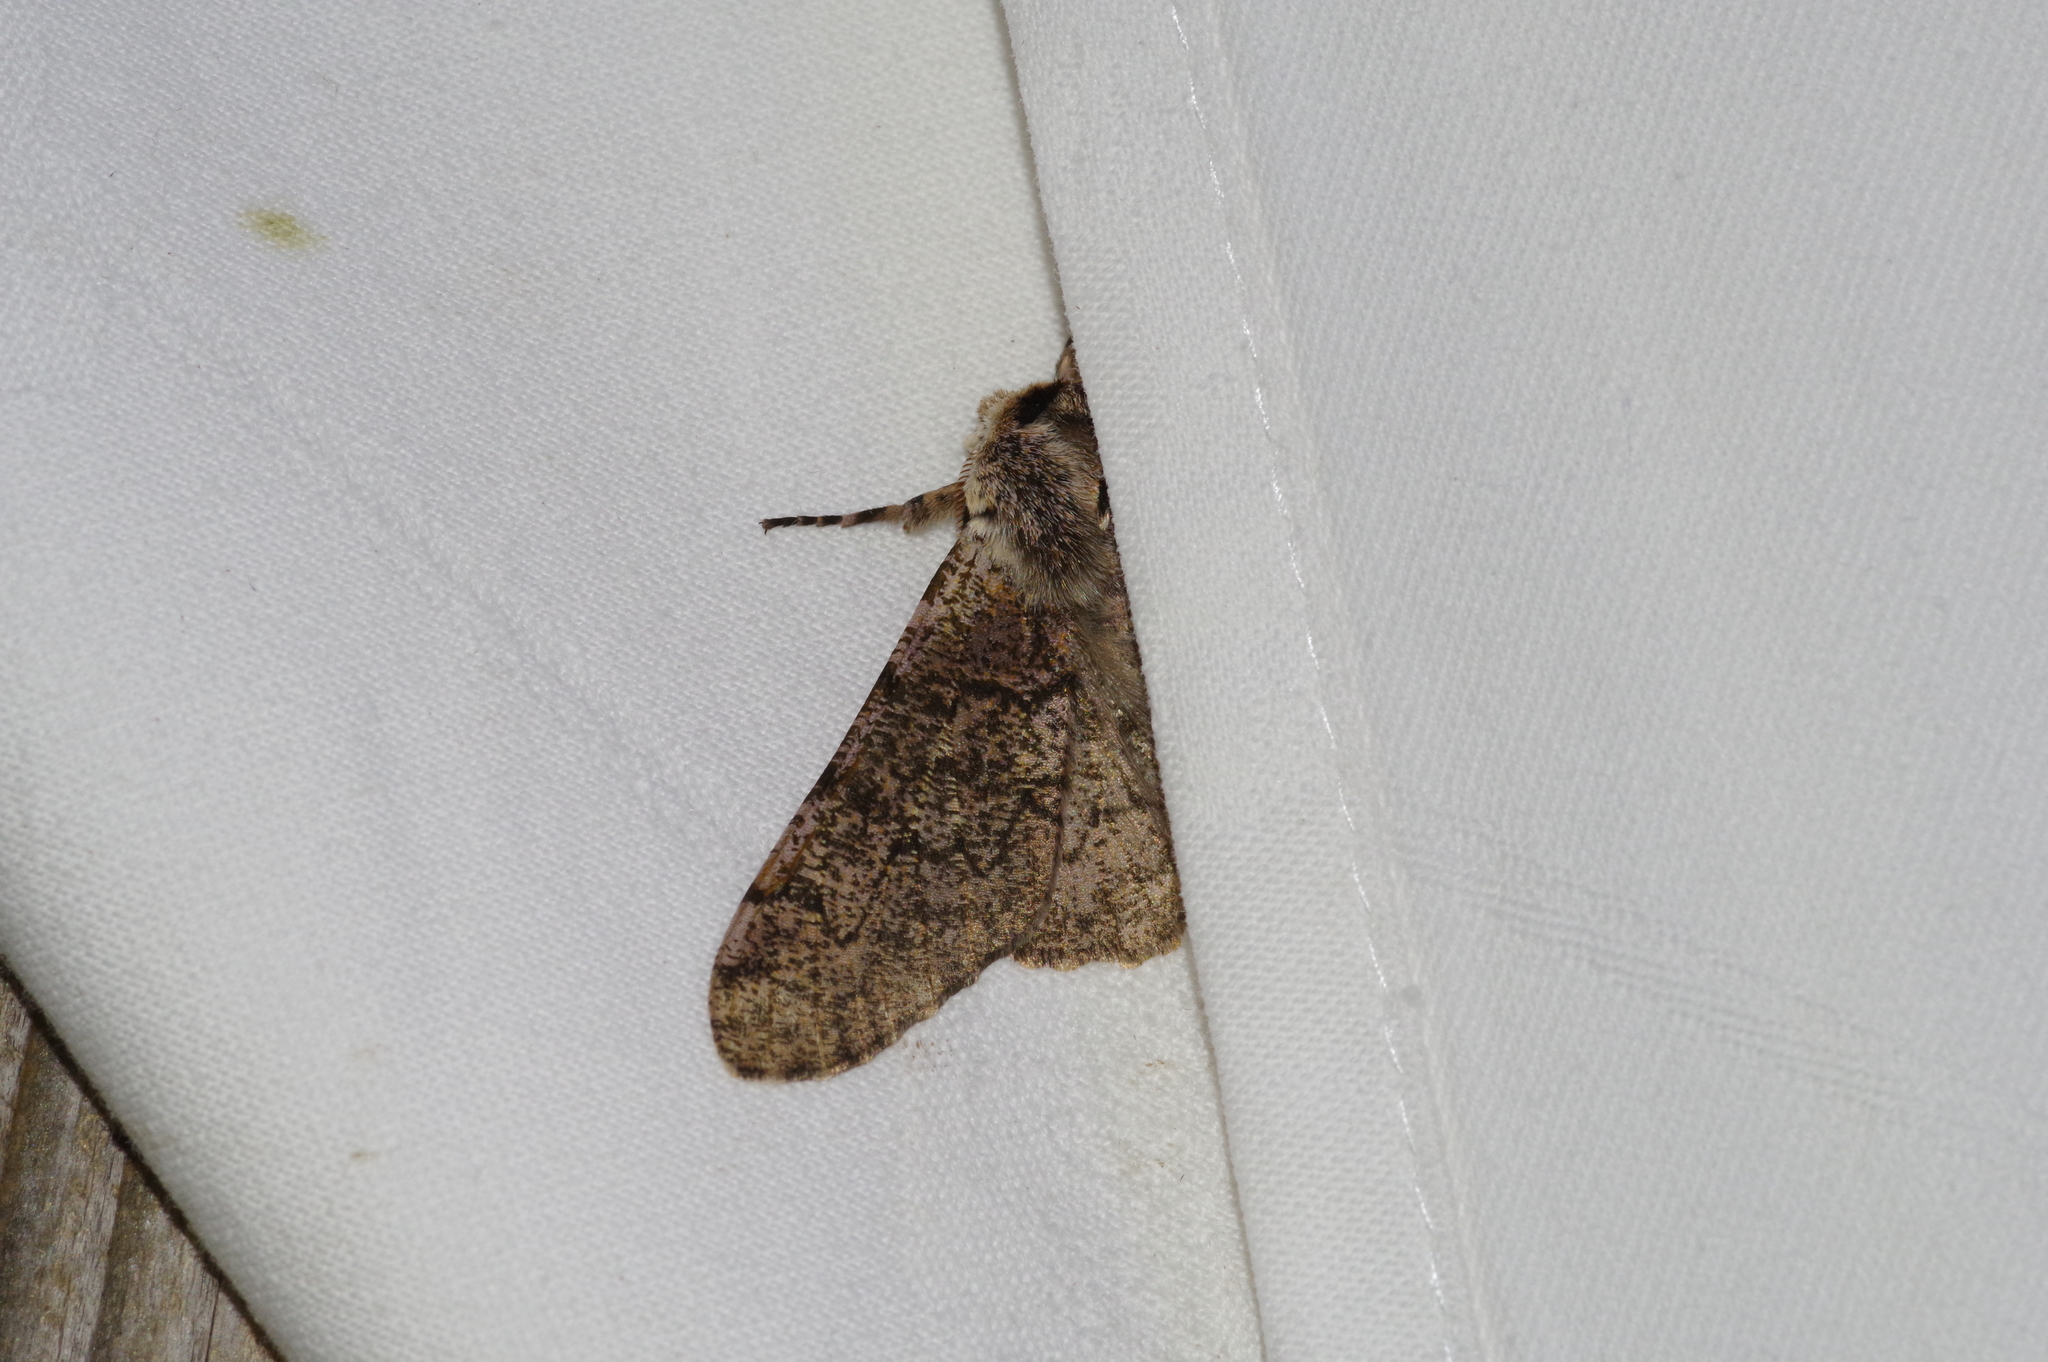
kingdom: Animalia
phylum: Arthropoda
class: Insecta
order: Lepidoptera
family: Geometridae
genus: Biston
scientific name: Biston robustum
